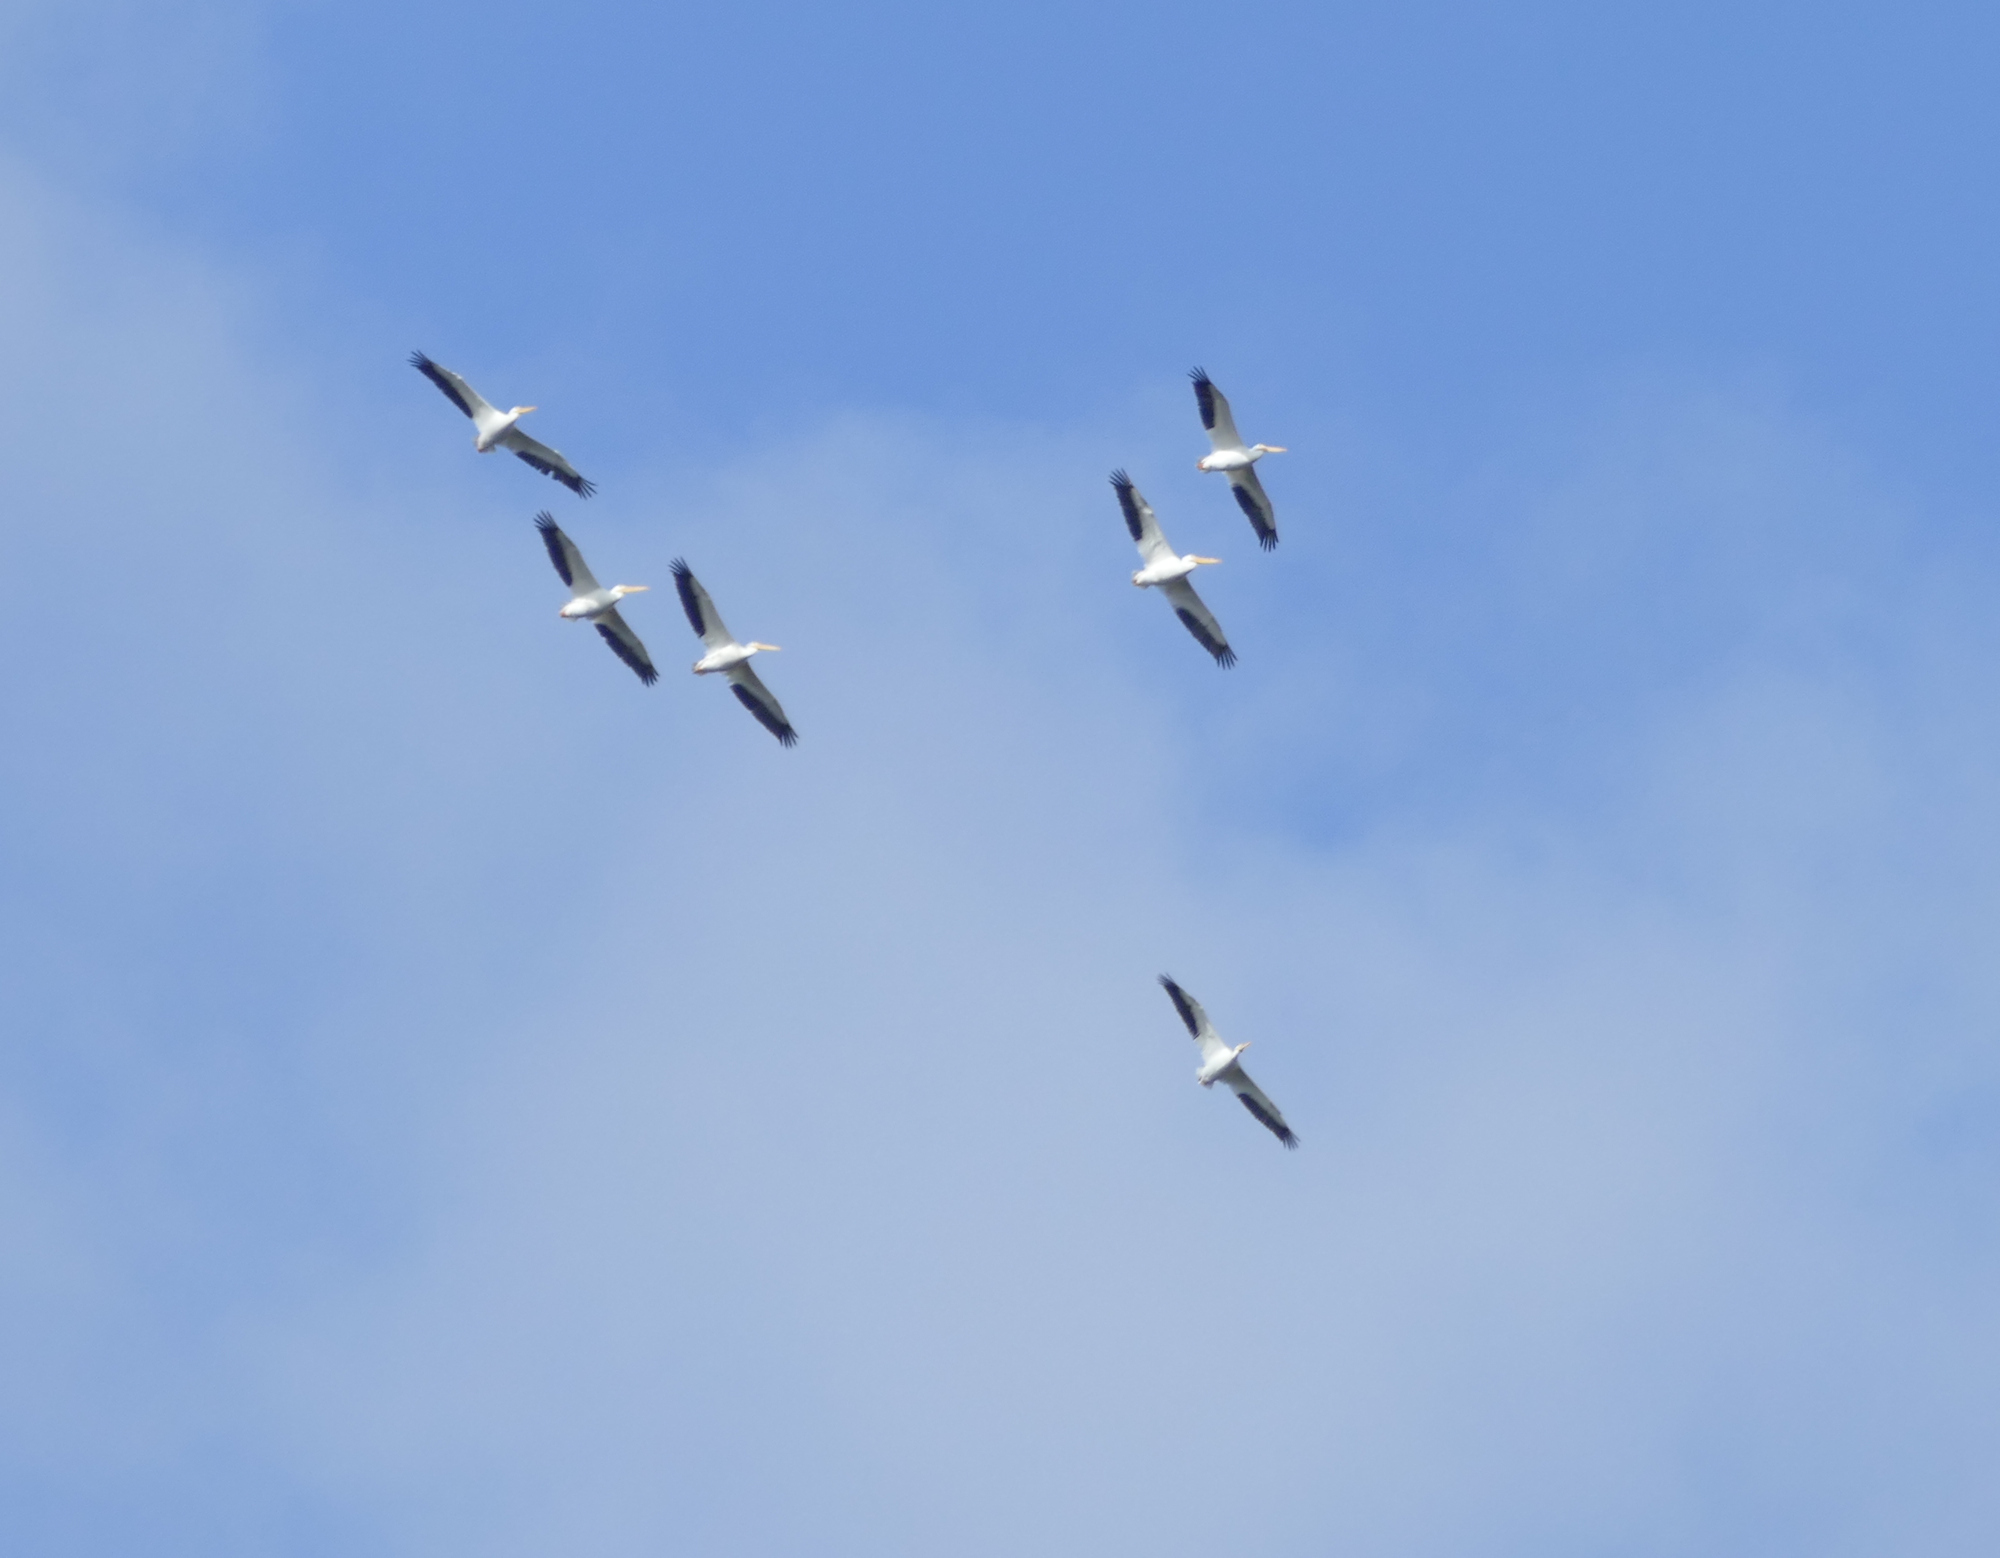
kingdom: Animalia
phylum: Chordata
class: Aves
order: Pelecaniformes
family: Pelecanidae
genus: Pelecanus
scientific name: Pelecanus erythrorhynchos
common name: American white pelican
